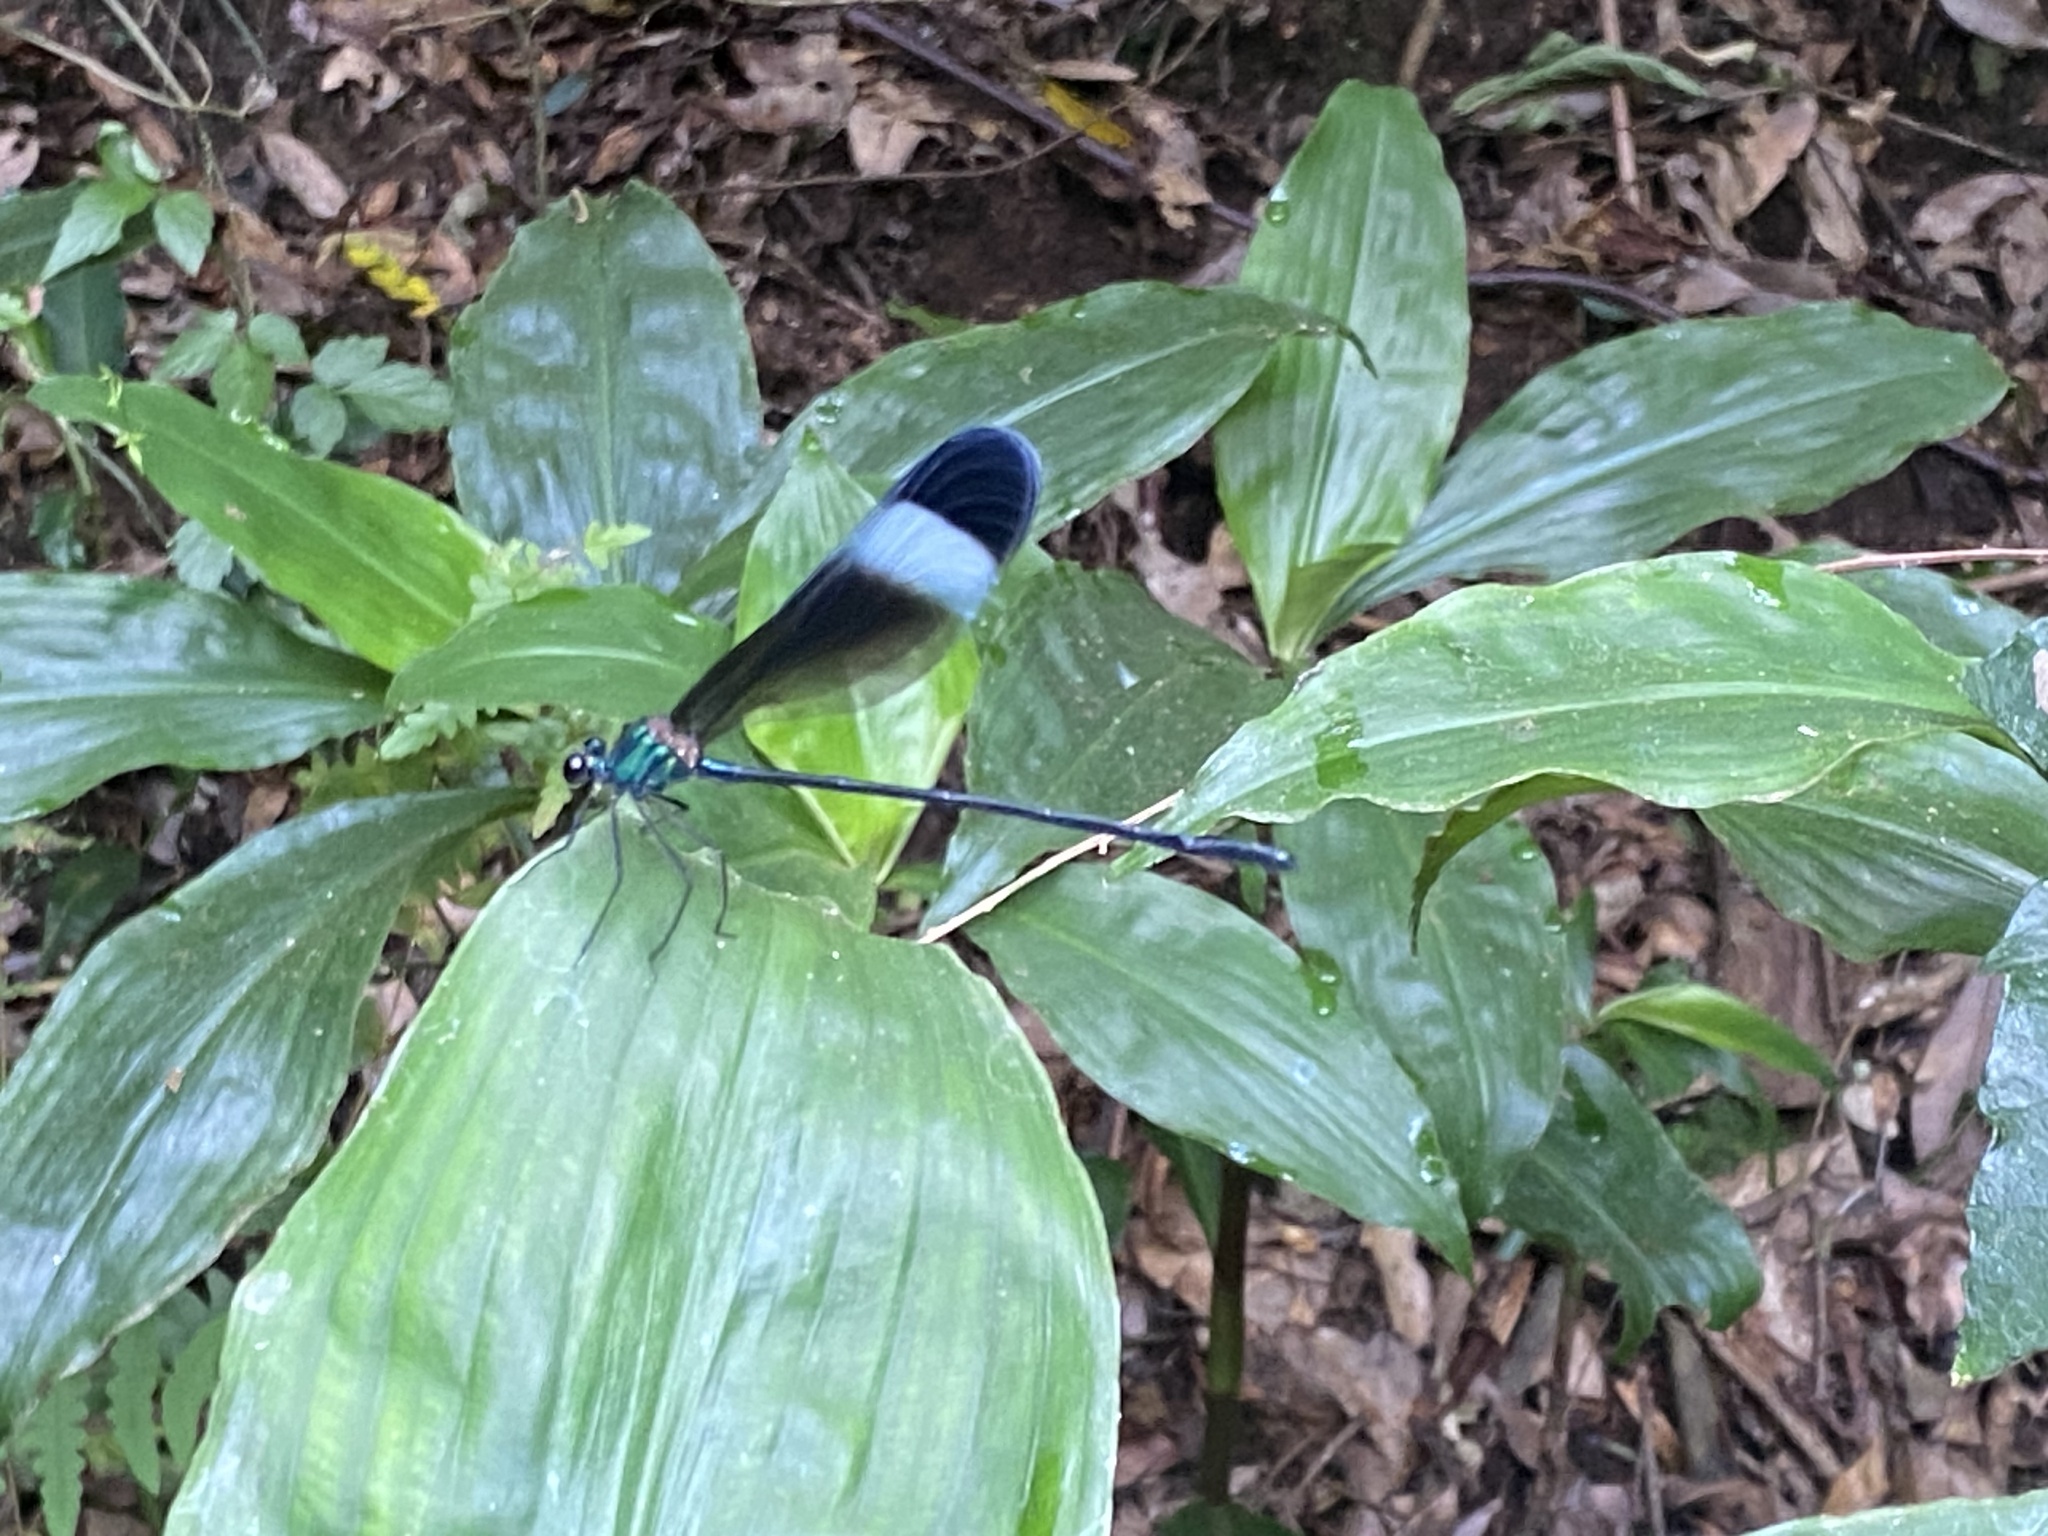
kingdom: Animalia
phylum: Arthropoda
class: Insecta
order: Odonata
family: Calopterygidae
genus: Psolodesmus
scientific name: Psolodesmus mandarinus
